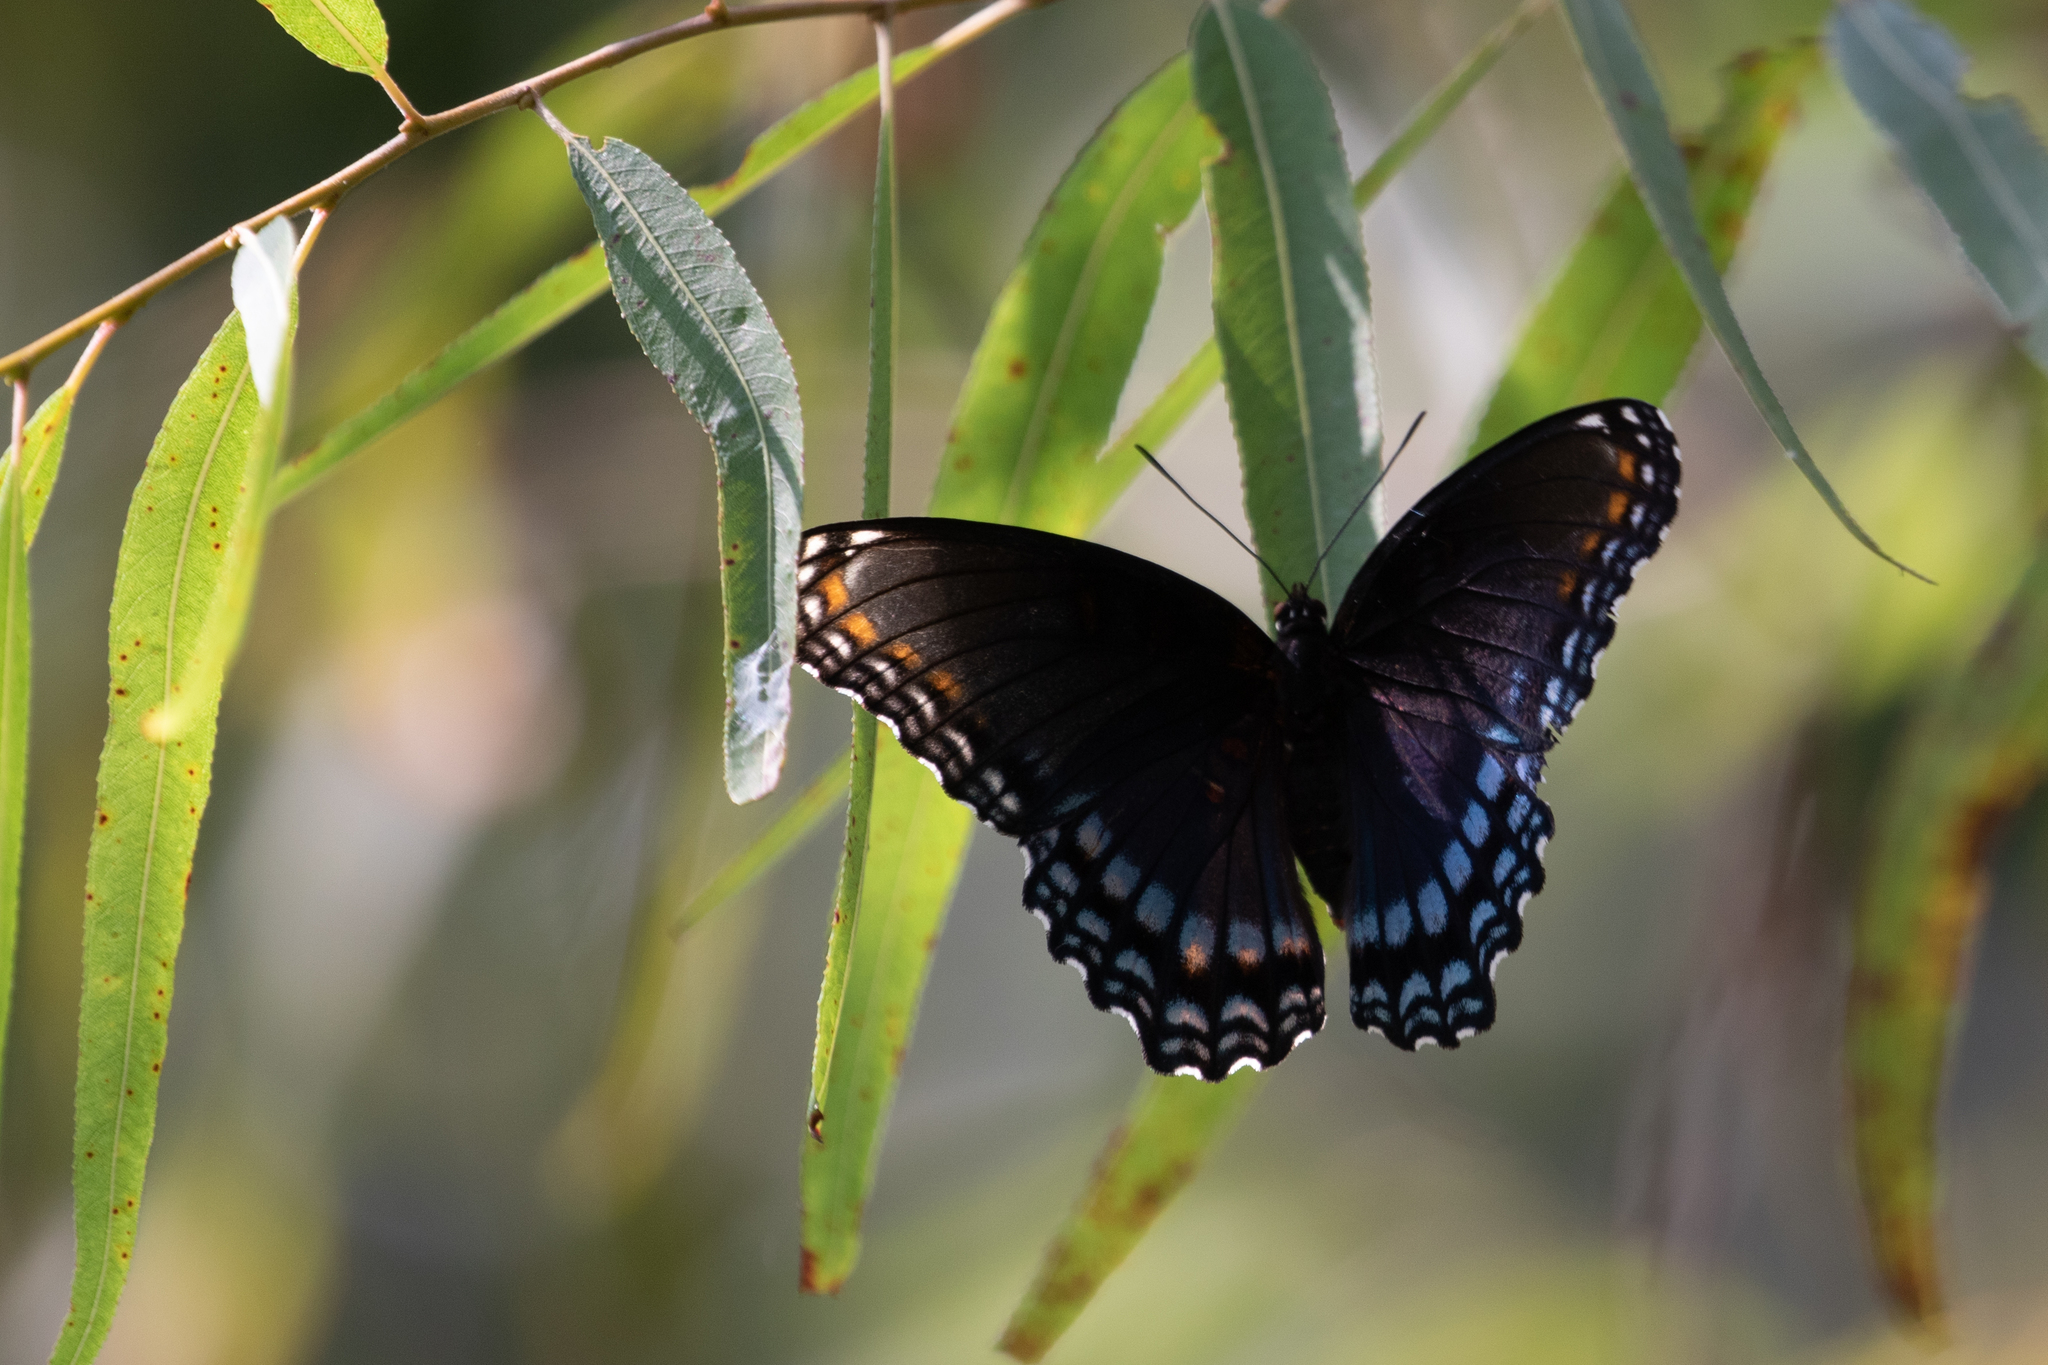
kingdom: Animalia
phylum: Arthropoda
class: Insecta
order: Lepidoptera
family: Nymphalidae
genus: Limenitis
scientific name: Limenitis astyanax
